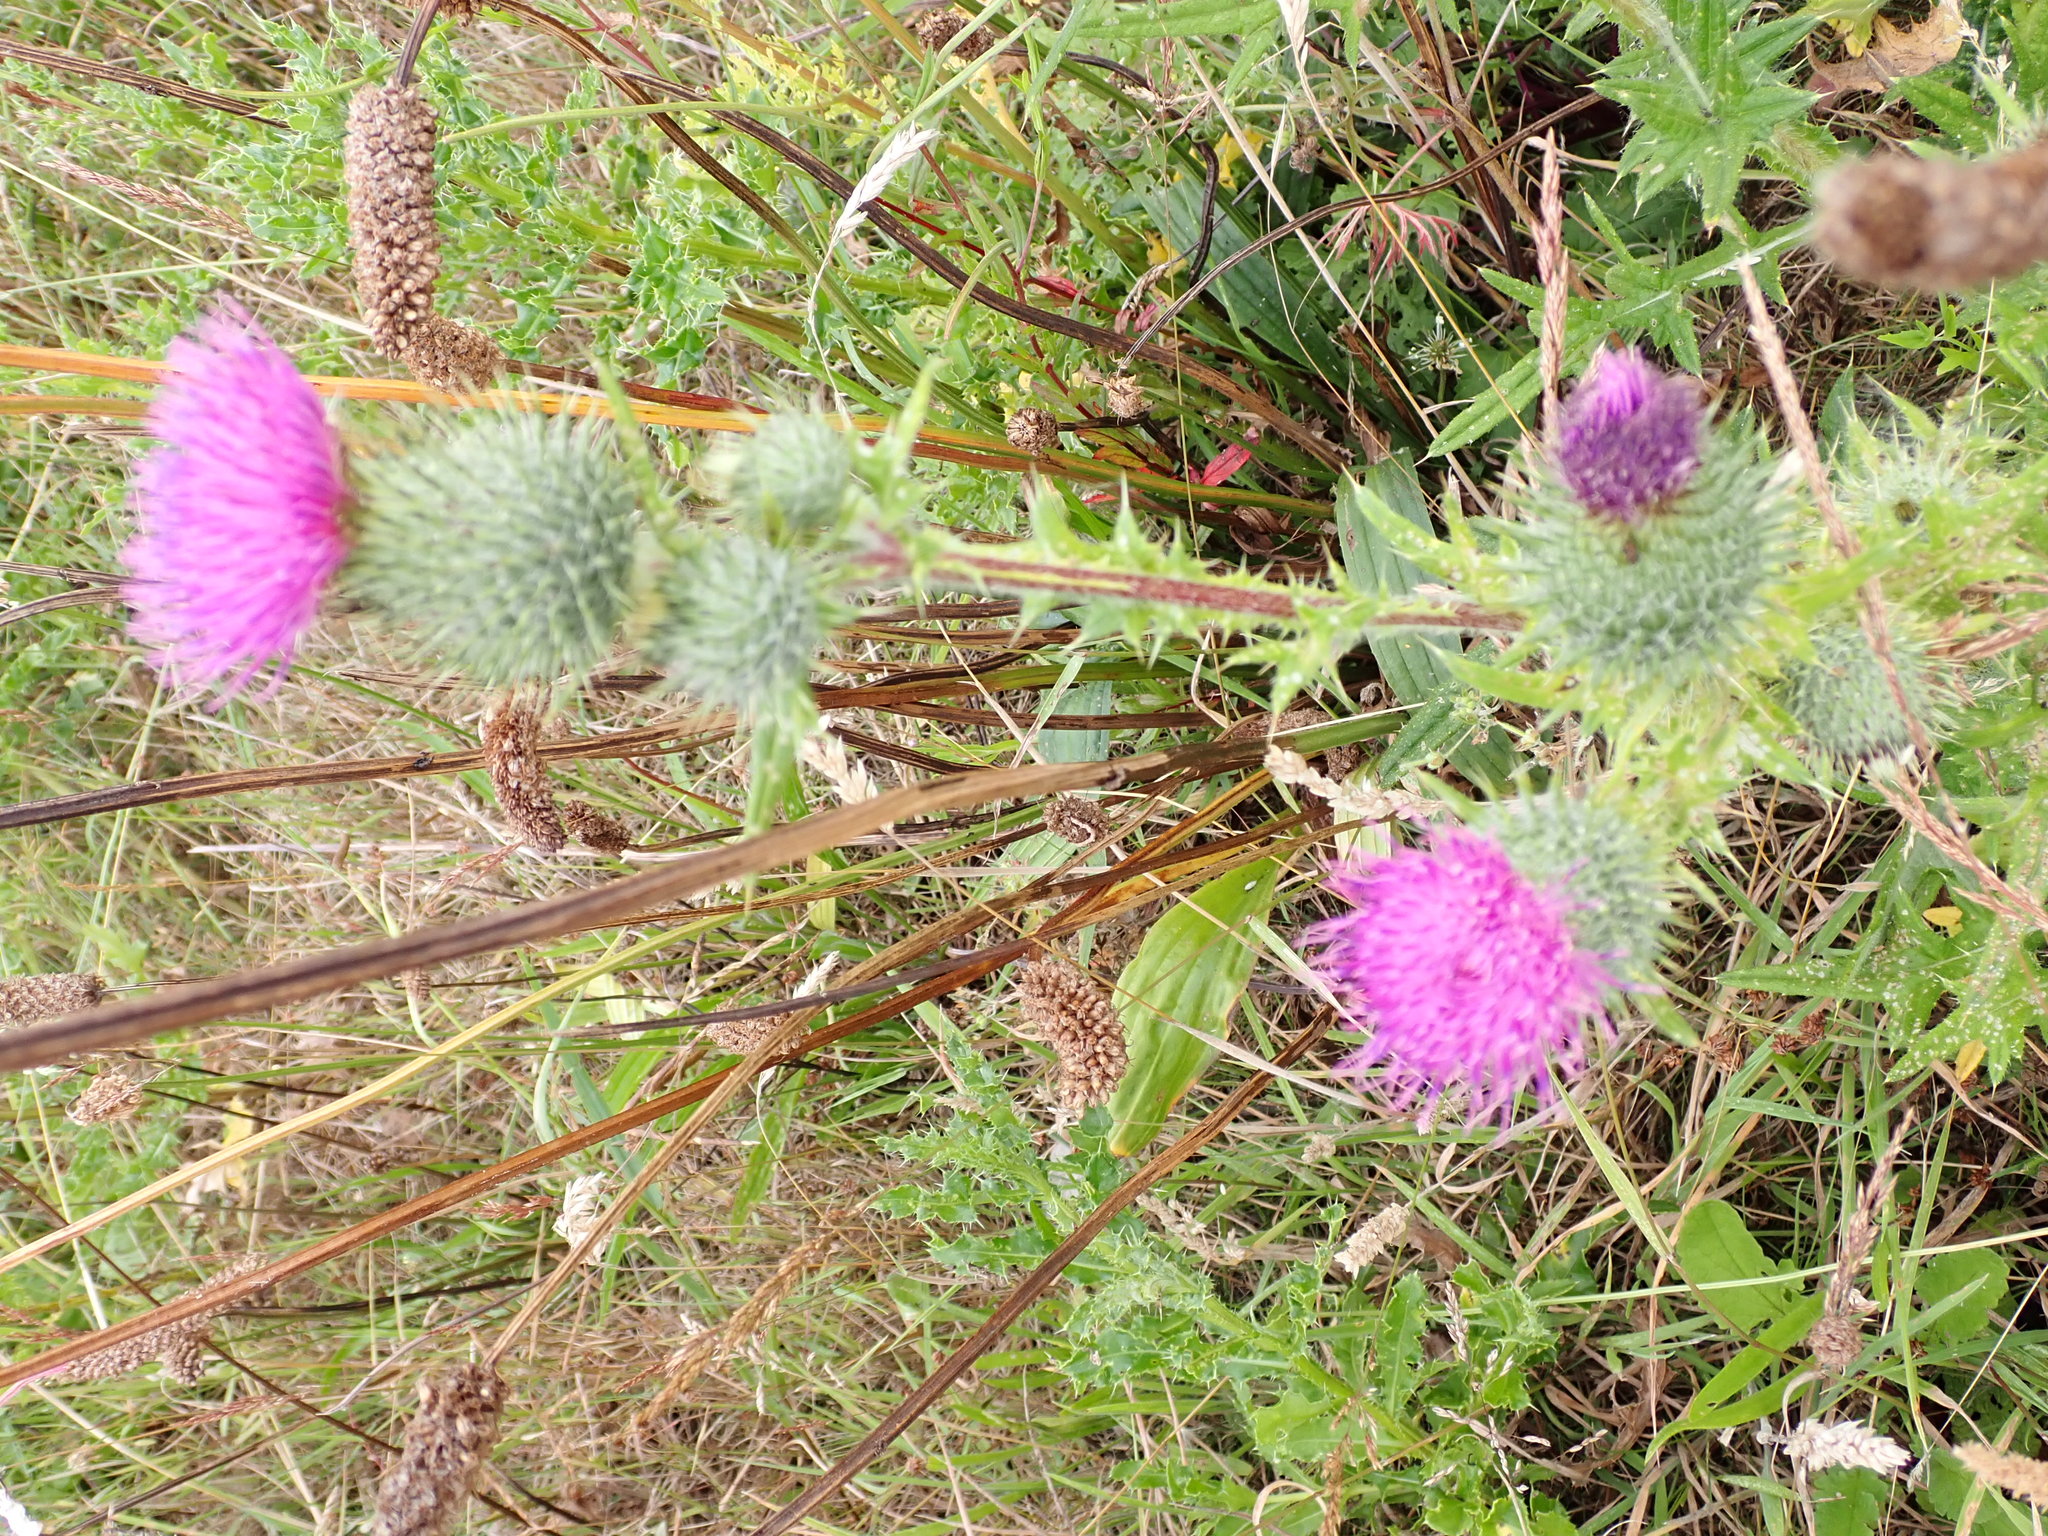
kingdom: Plantae
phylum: Tracheophyta
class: Magnoliopsida
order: Asterales
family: Asteraceae
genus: Cirsium
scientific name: Cirsium vulgare
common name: Bull thistle
